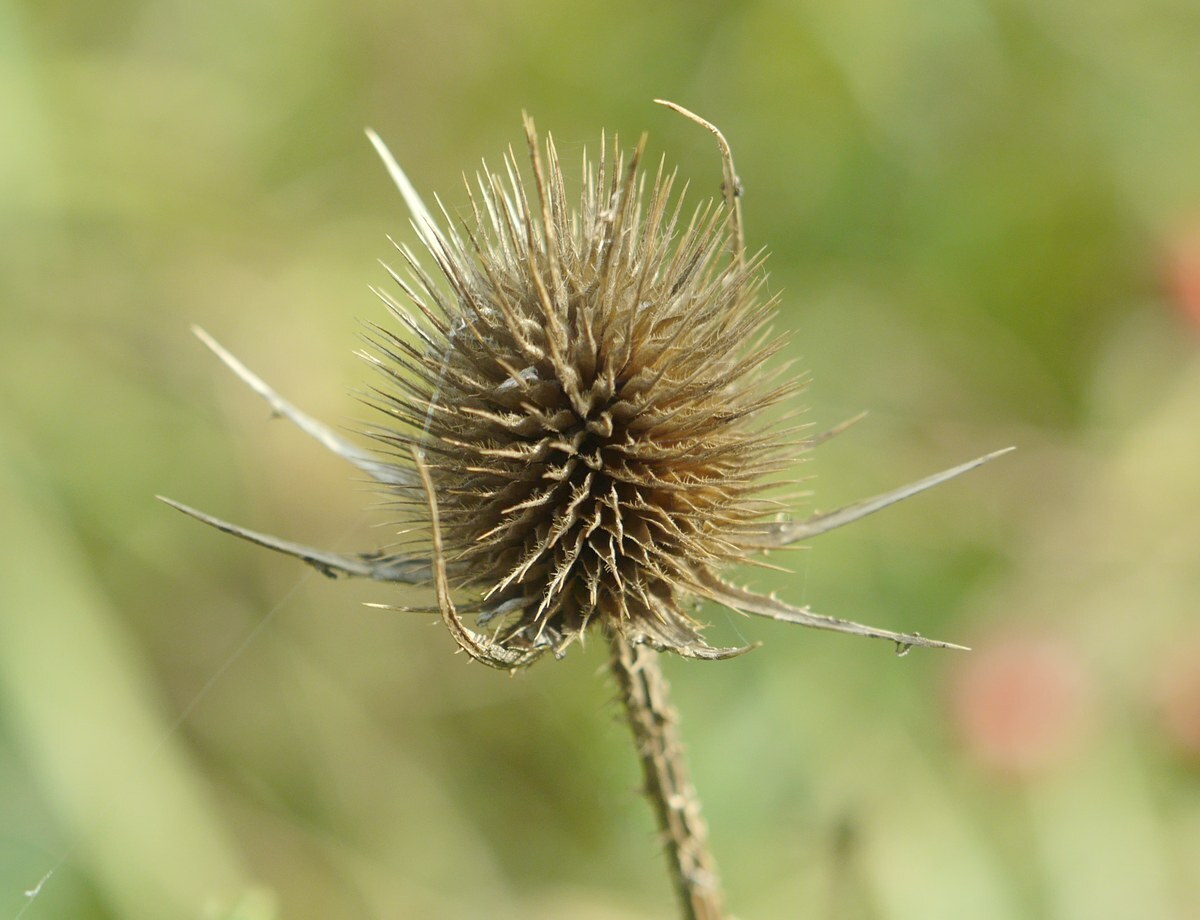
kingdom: Plantae
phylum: Tracheophyta
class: Magnoliopsida
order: Dipsacales
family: Caprifoliaceae
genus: Dipsacus
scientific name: Dipsacus fullonum
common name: Teasel
